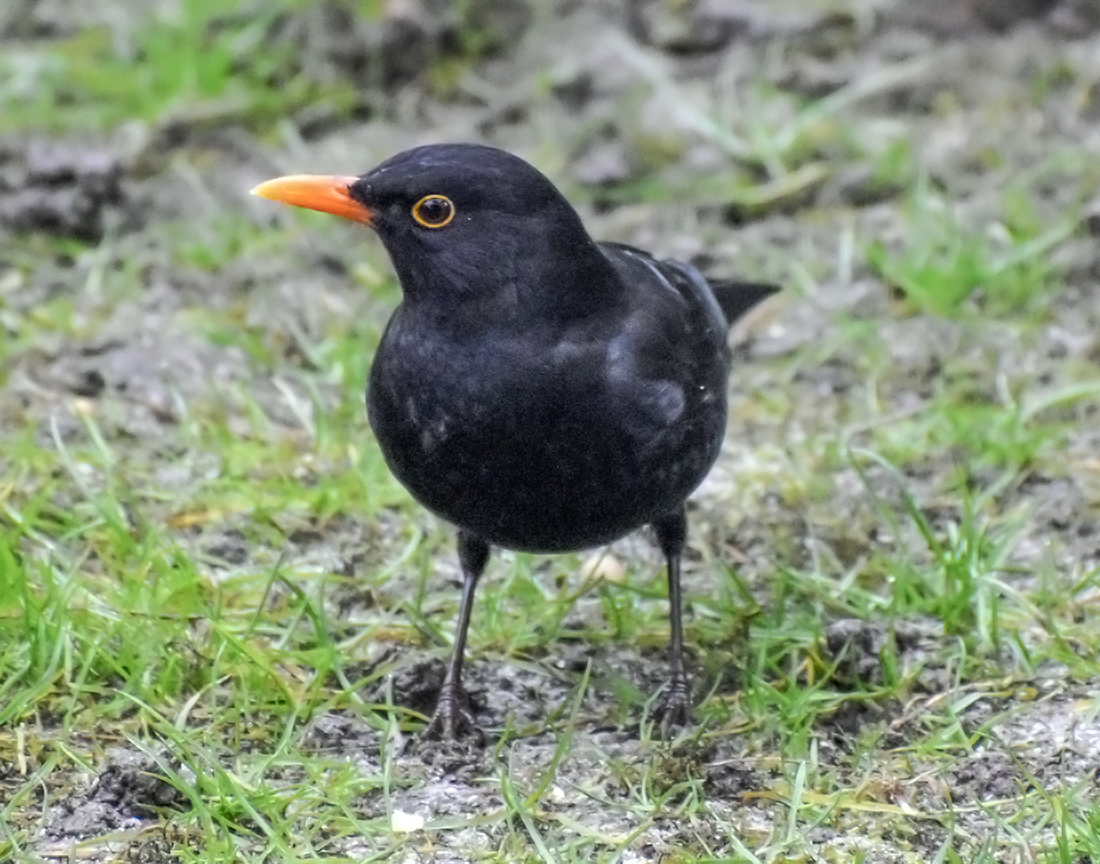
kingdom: Animalia
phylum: Chordata
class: Aves
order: Passeriformes
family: Turdidae
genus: Turdus
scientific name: Turdus merula
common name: Common blackbird
